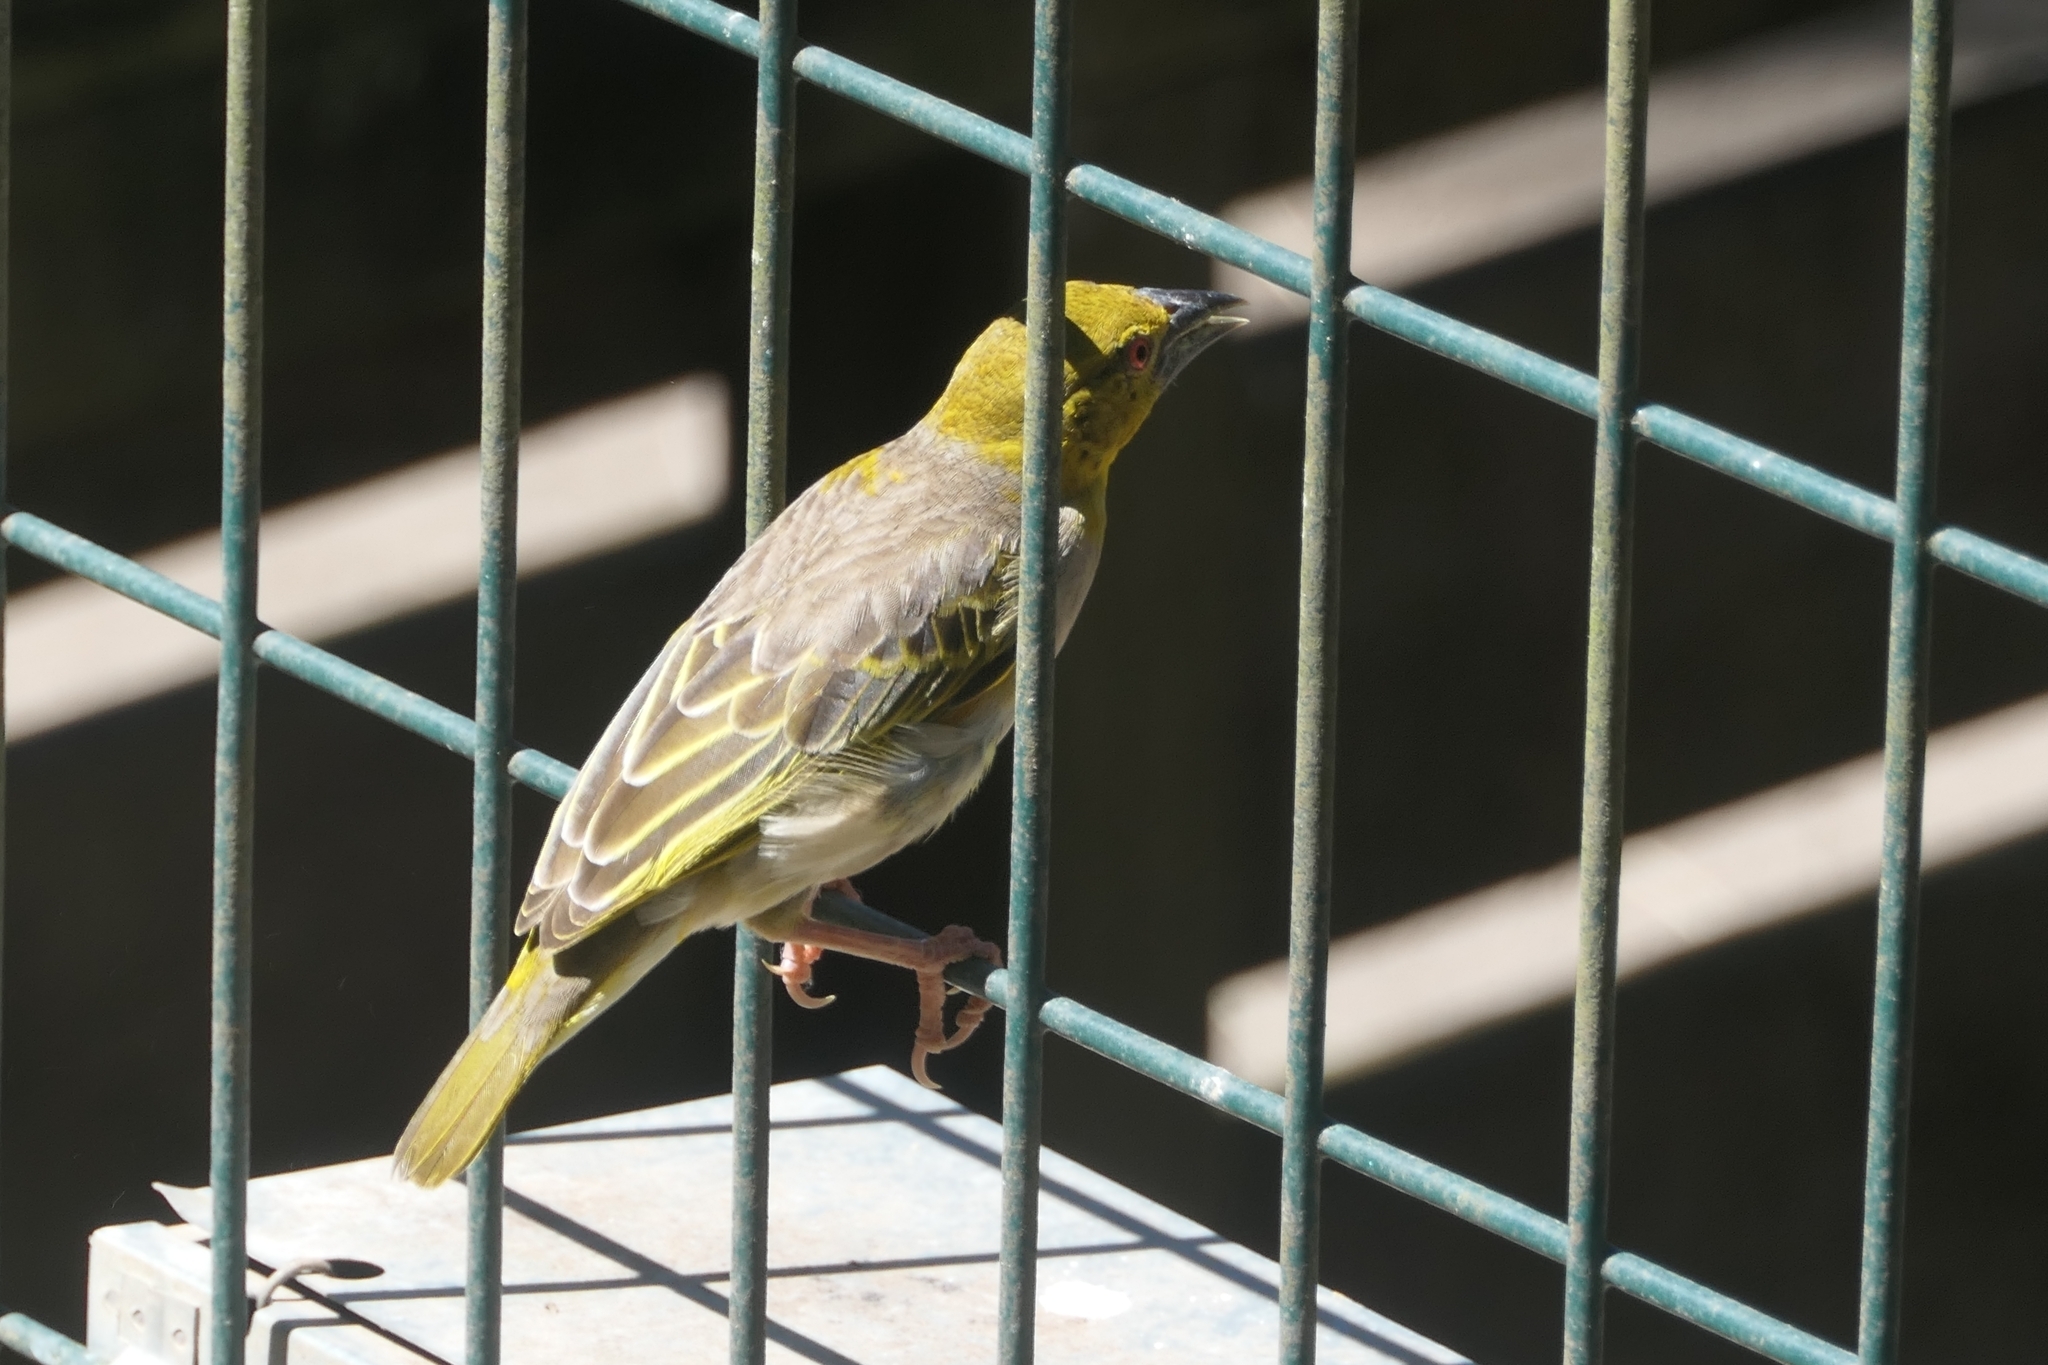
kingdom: Animalia
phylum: Chordata
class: Aves
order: Passeriformes
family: Ploceidae
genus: Ploceus
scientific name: Ploceus cucullatus
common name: Village weaver
